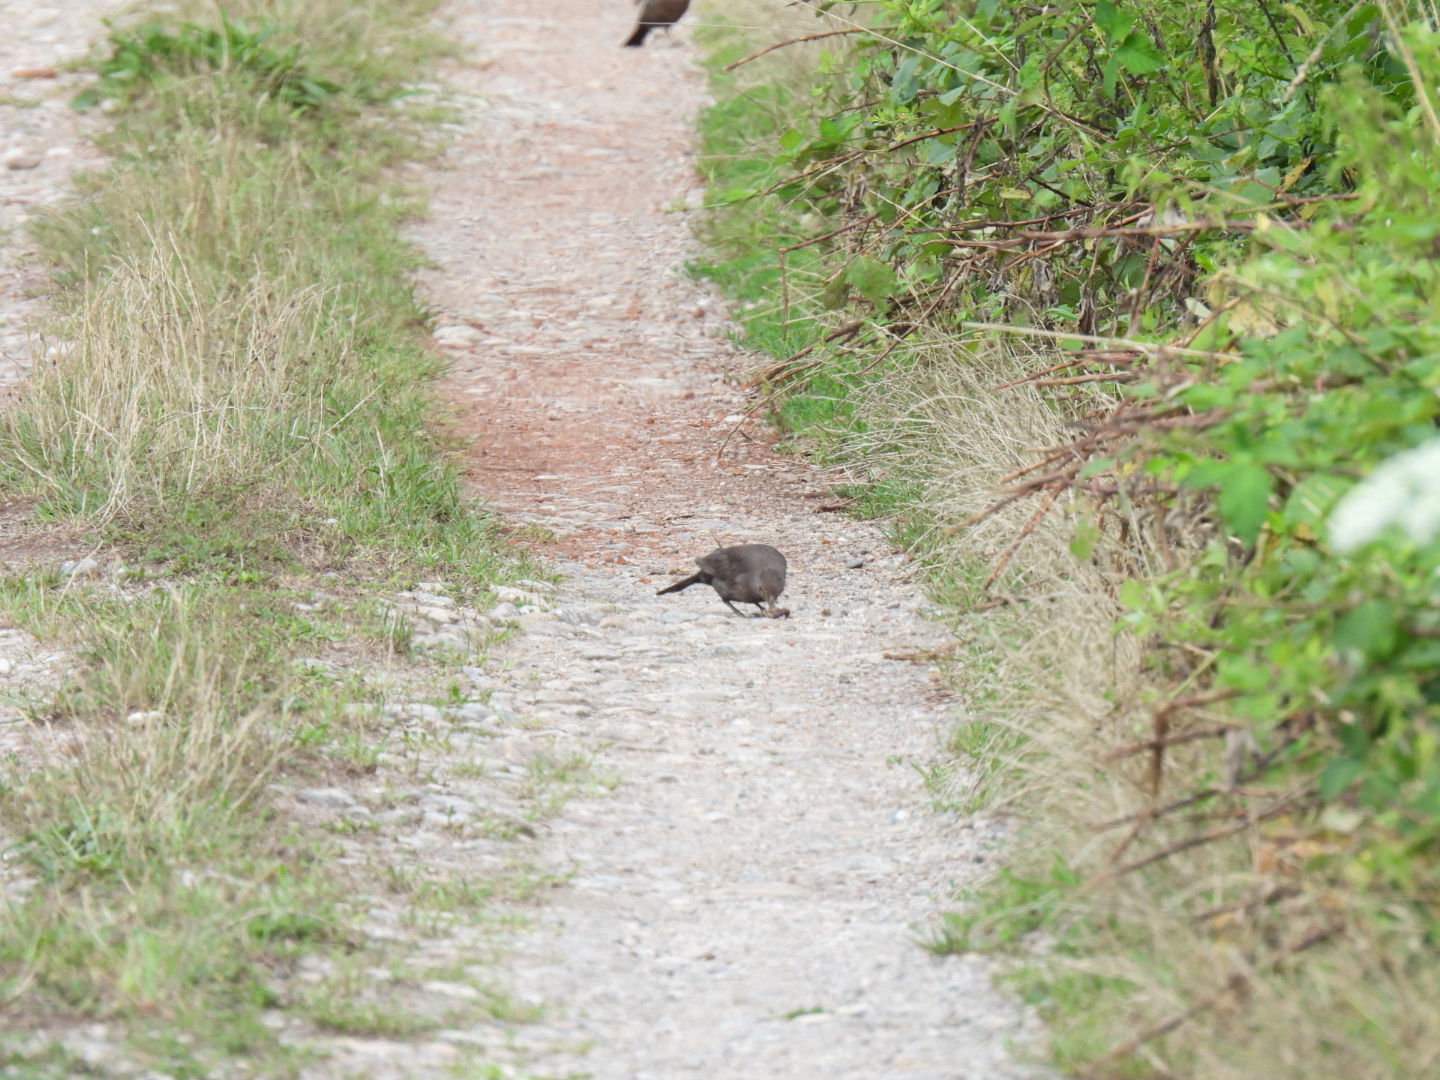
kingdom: Animalia
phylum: Chordata
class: Aves
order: Passeriformes
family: Turdidae
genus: Turdus
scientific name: Turdus merula
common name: Common blackbird
